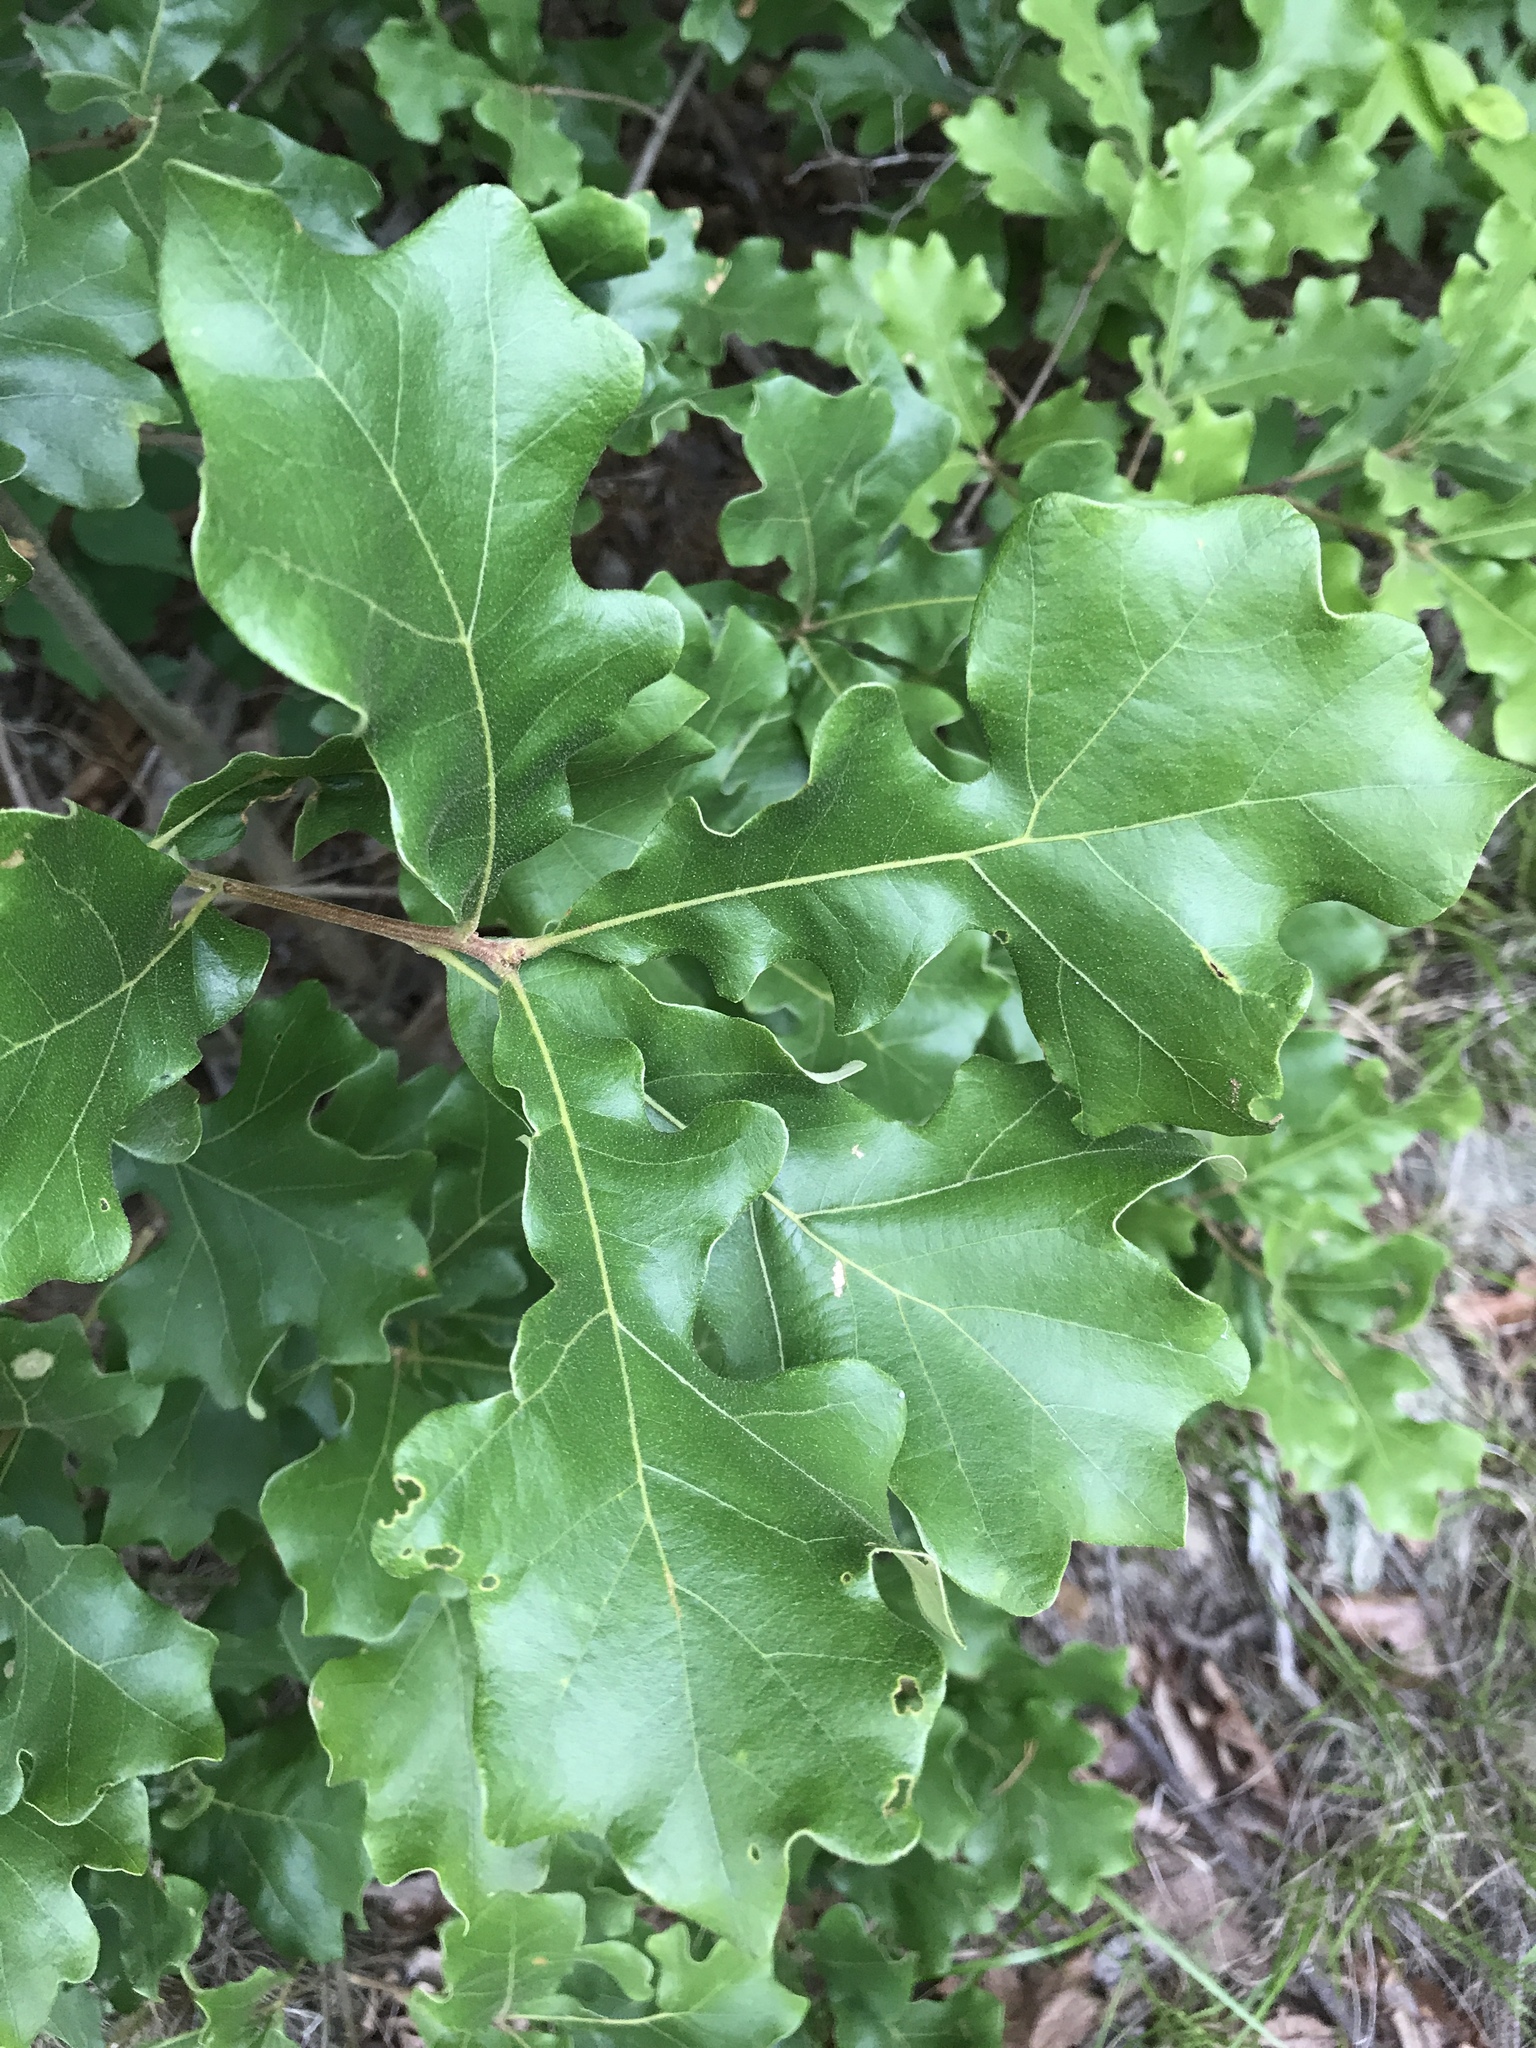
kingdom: Plantae
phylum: Tracheophyta
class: Magnoliopsida
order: Fagales
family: Fagaceae
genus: Quercus
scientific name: Quercus stellata
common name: Post oak
